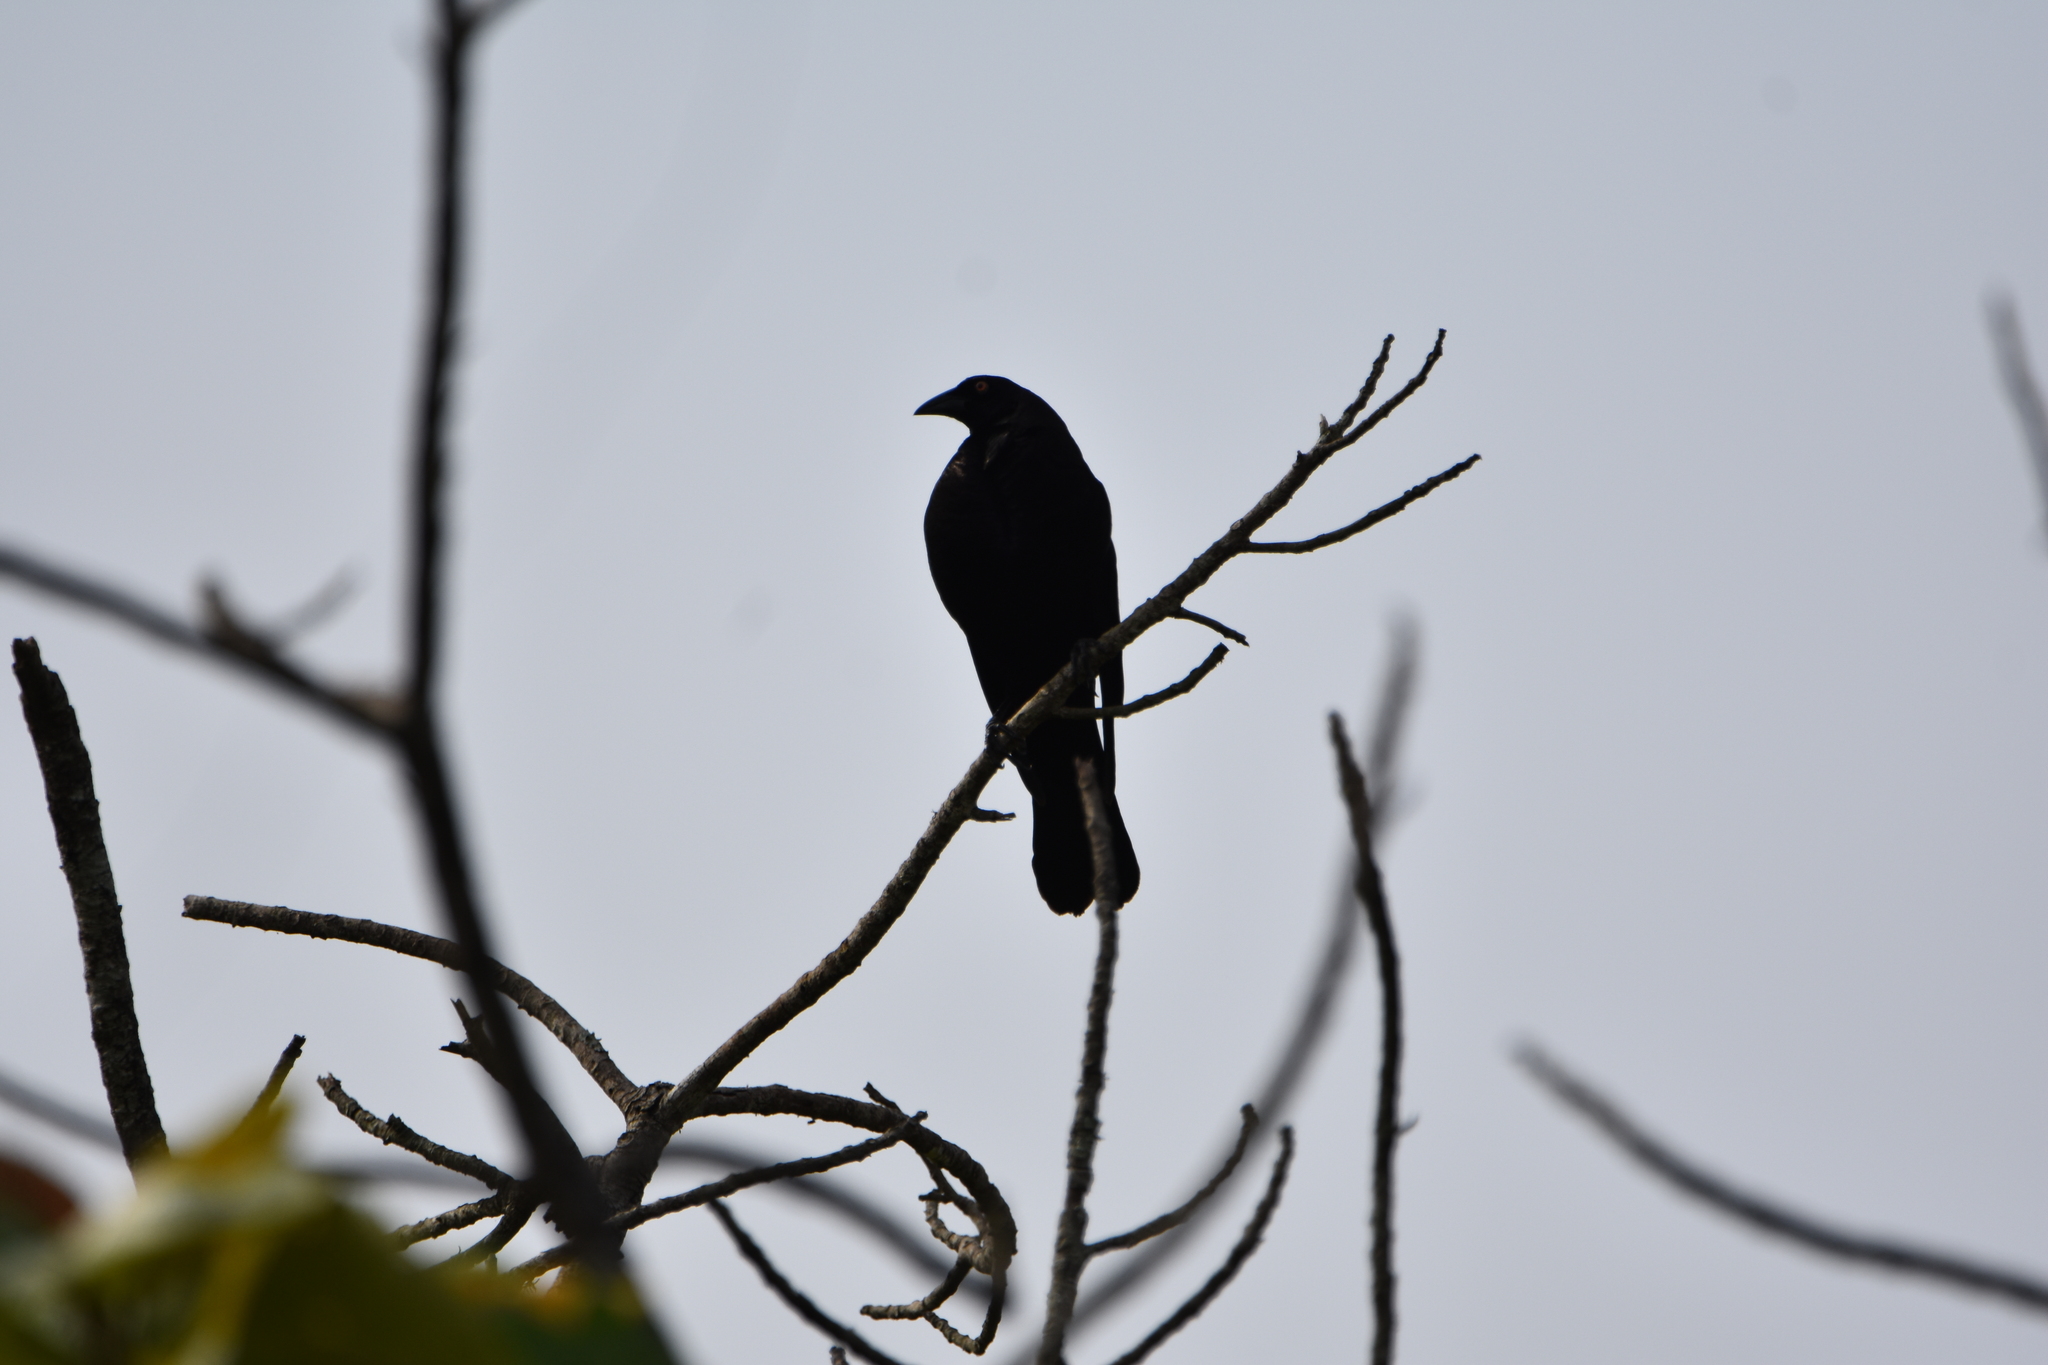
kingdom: Animalia
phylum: Chordata
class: Aves
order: Passeriformes
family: Icteridae
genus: Molothrus
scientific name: Molothrus oryzivorus
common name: Giant cowbird
